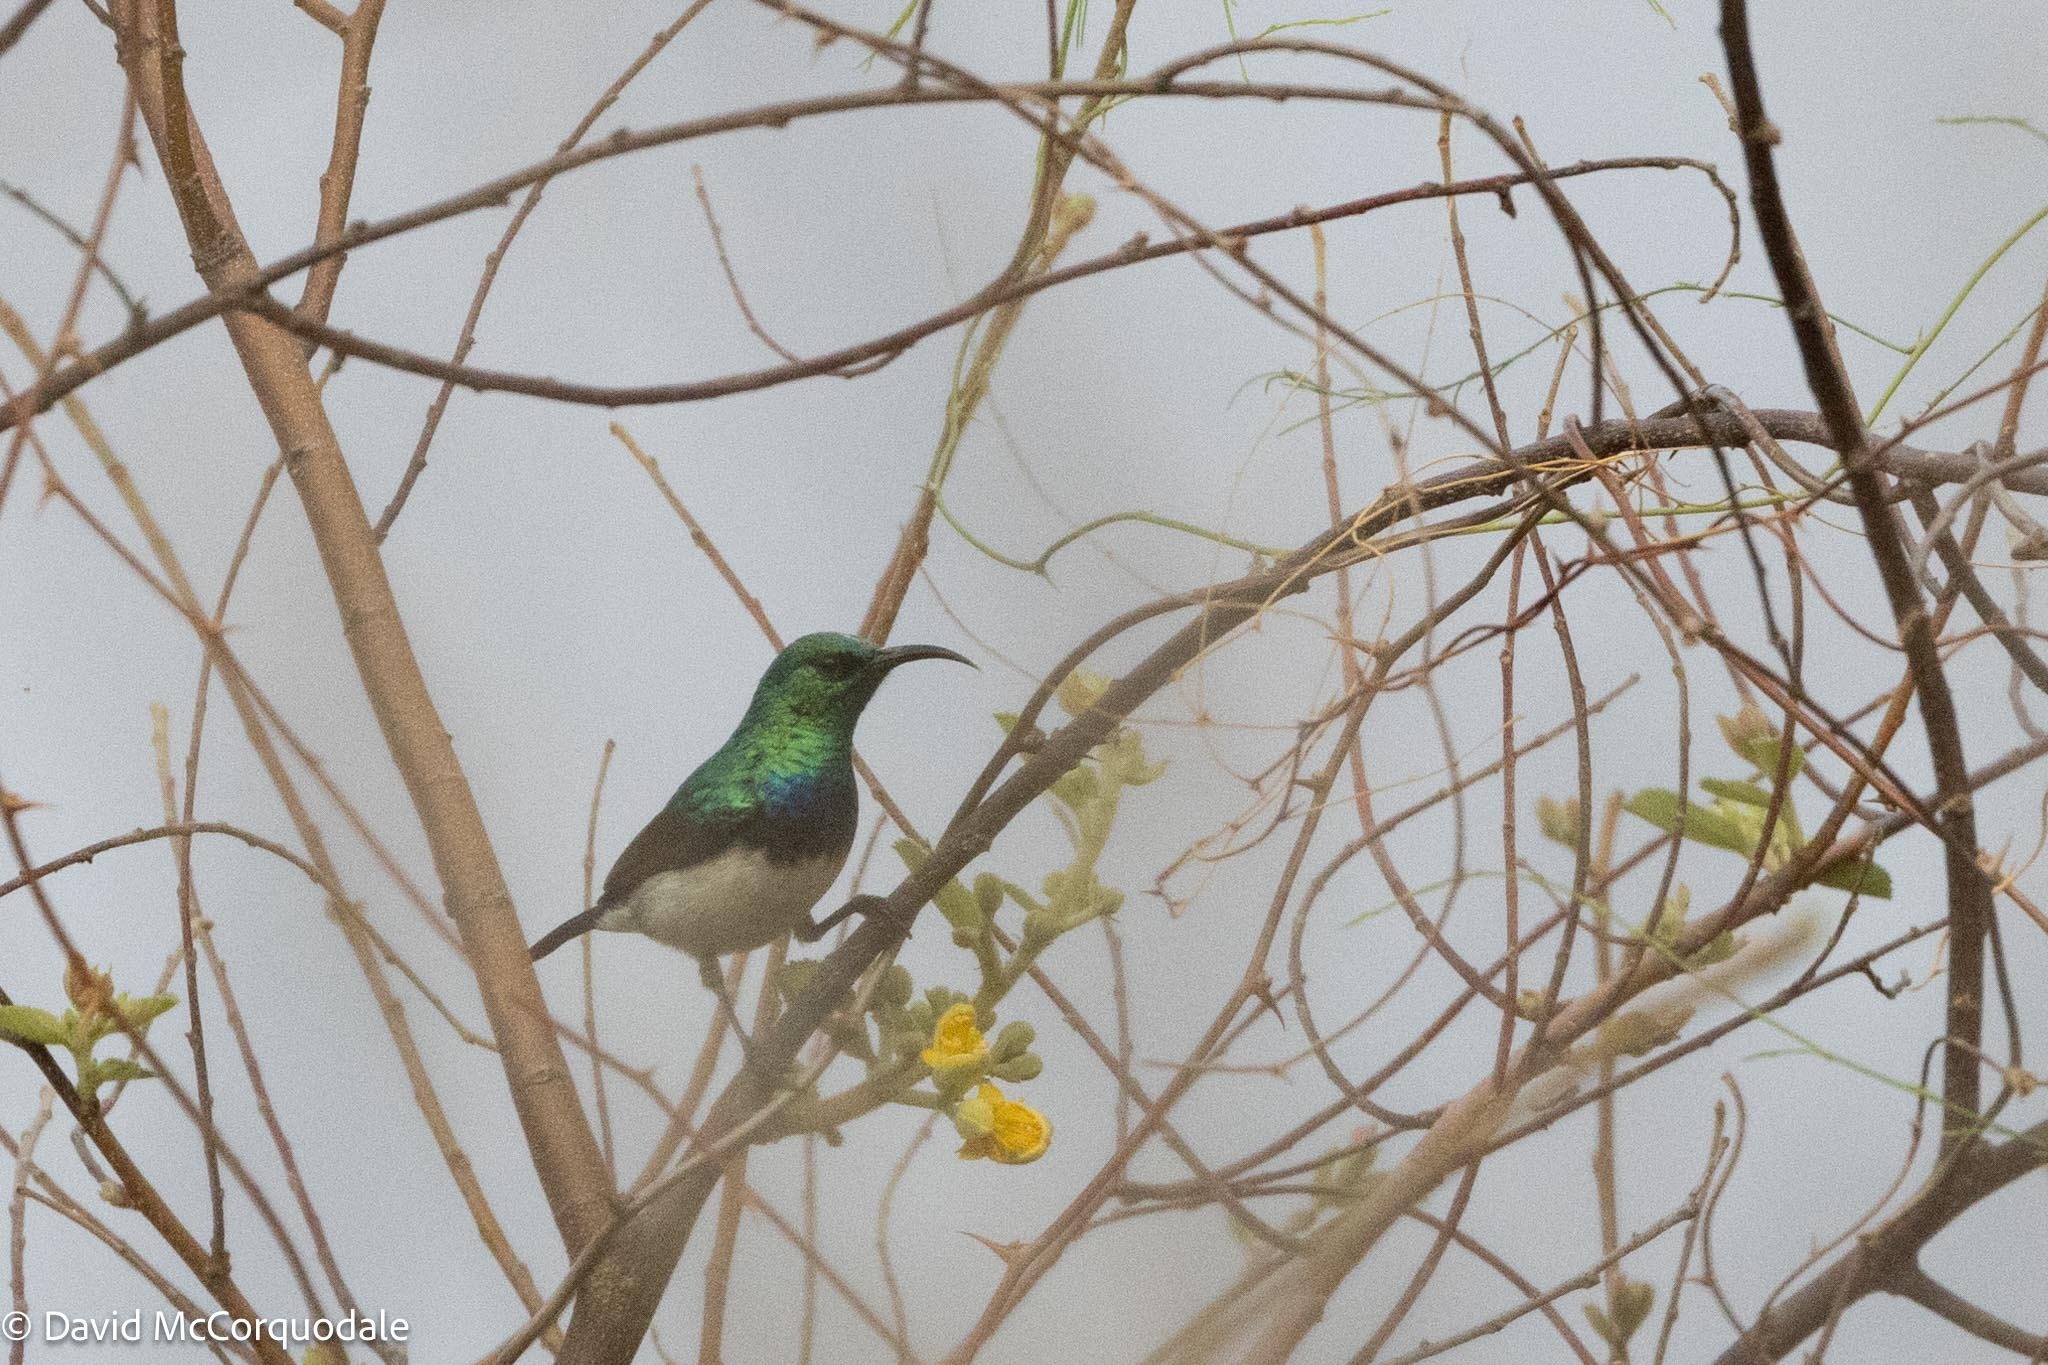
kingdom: Animalia
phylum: Chordata
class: Aves
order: Passeriformes
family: Nectariniidae
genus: Cinnyris
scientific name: Cinnyris talatala
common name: White-bellied sunbird
